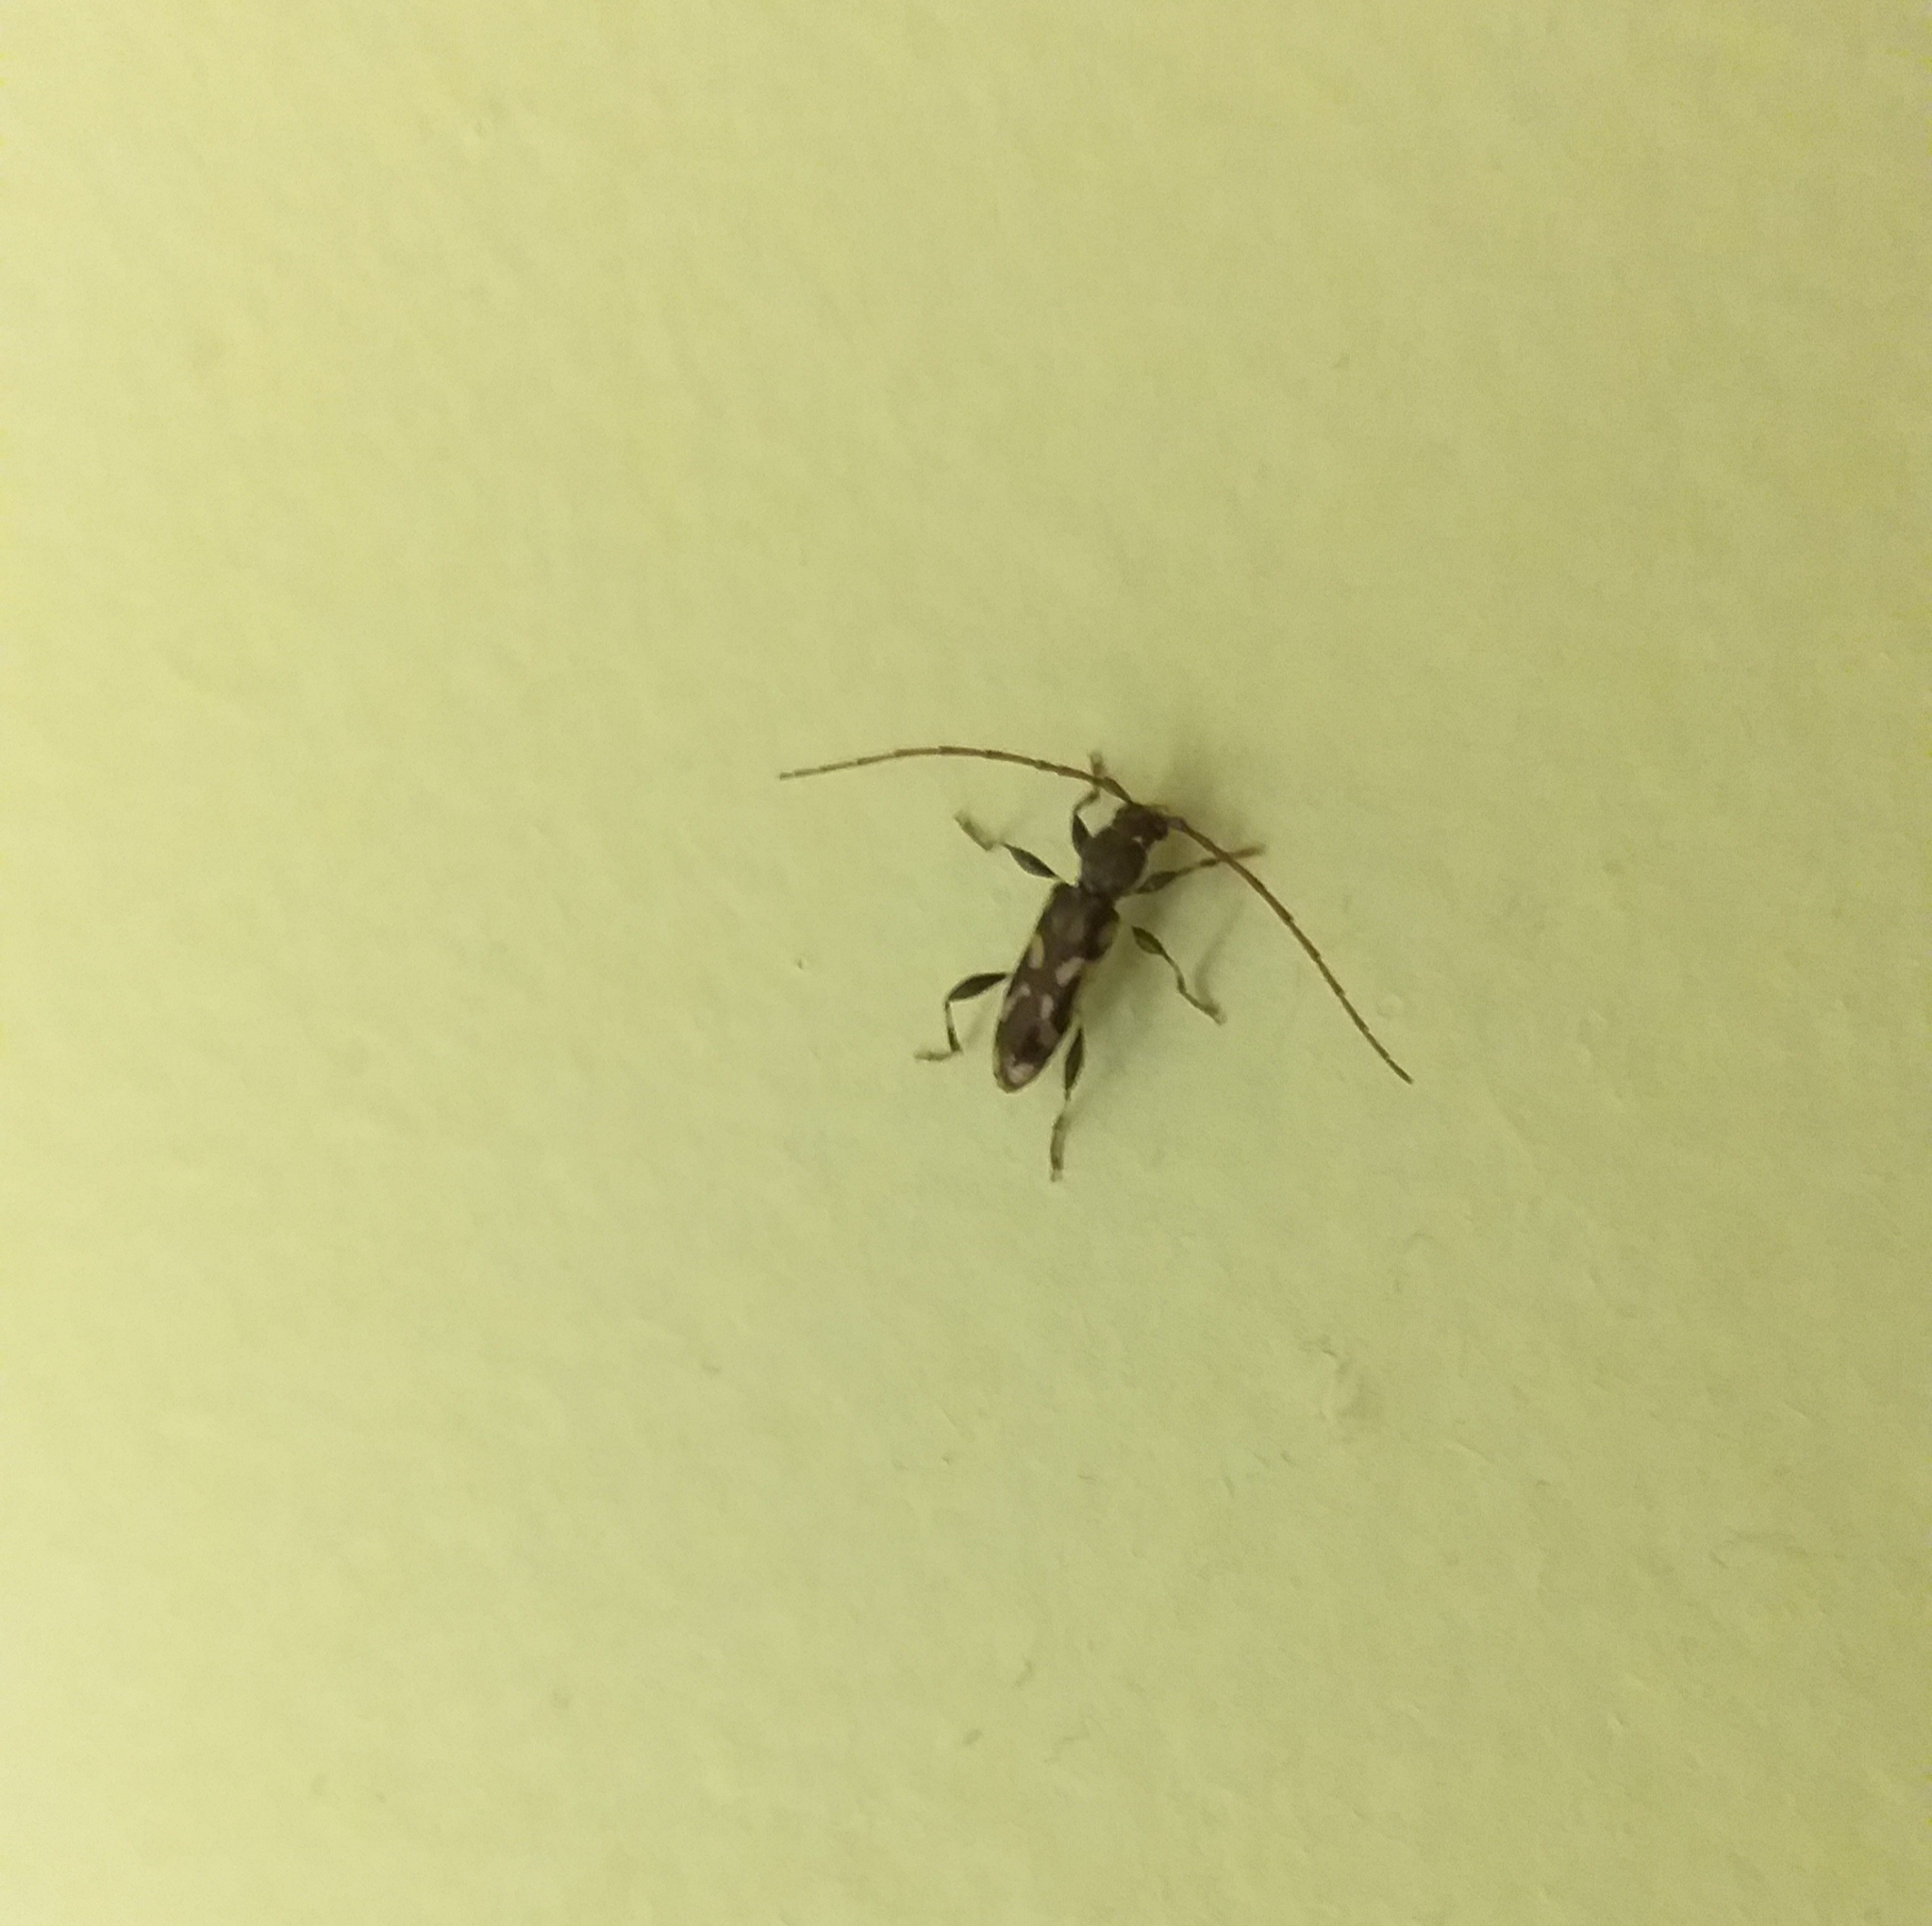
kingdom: Animalia
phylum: Arthropoda
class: Insecta
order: Coleoptera
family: Cerambycidae
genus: Bethelium
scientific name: Bethelium signiferum
